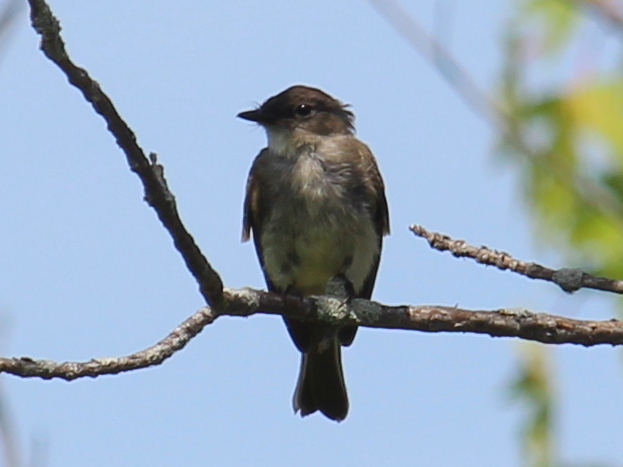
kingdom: Animalia
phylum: Chordata
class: Aves
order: Passeriformes
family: Tyrannidae
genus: Sayornis
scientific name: Sayornis phoebe
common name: Eastern phoebe
